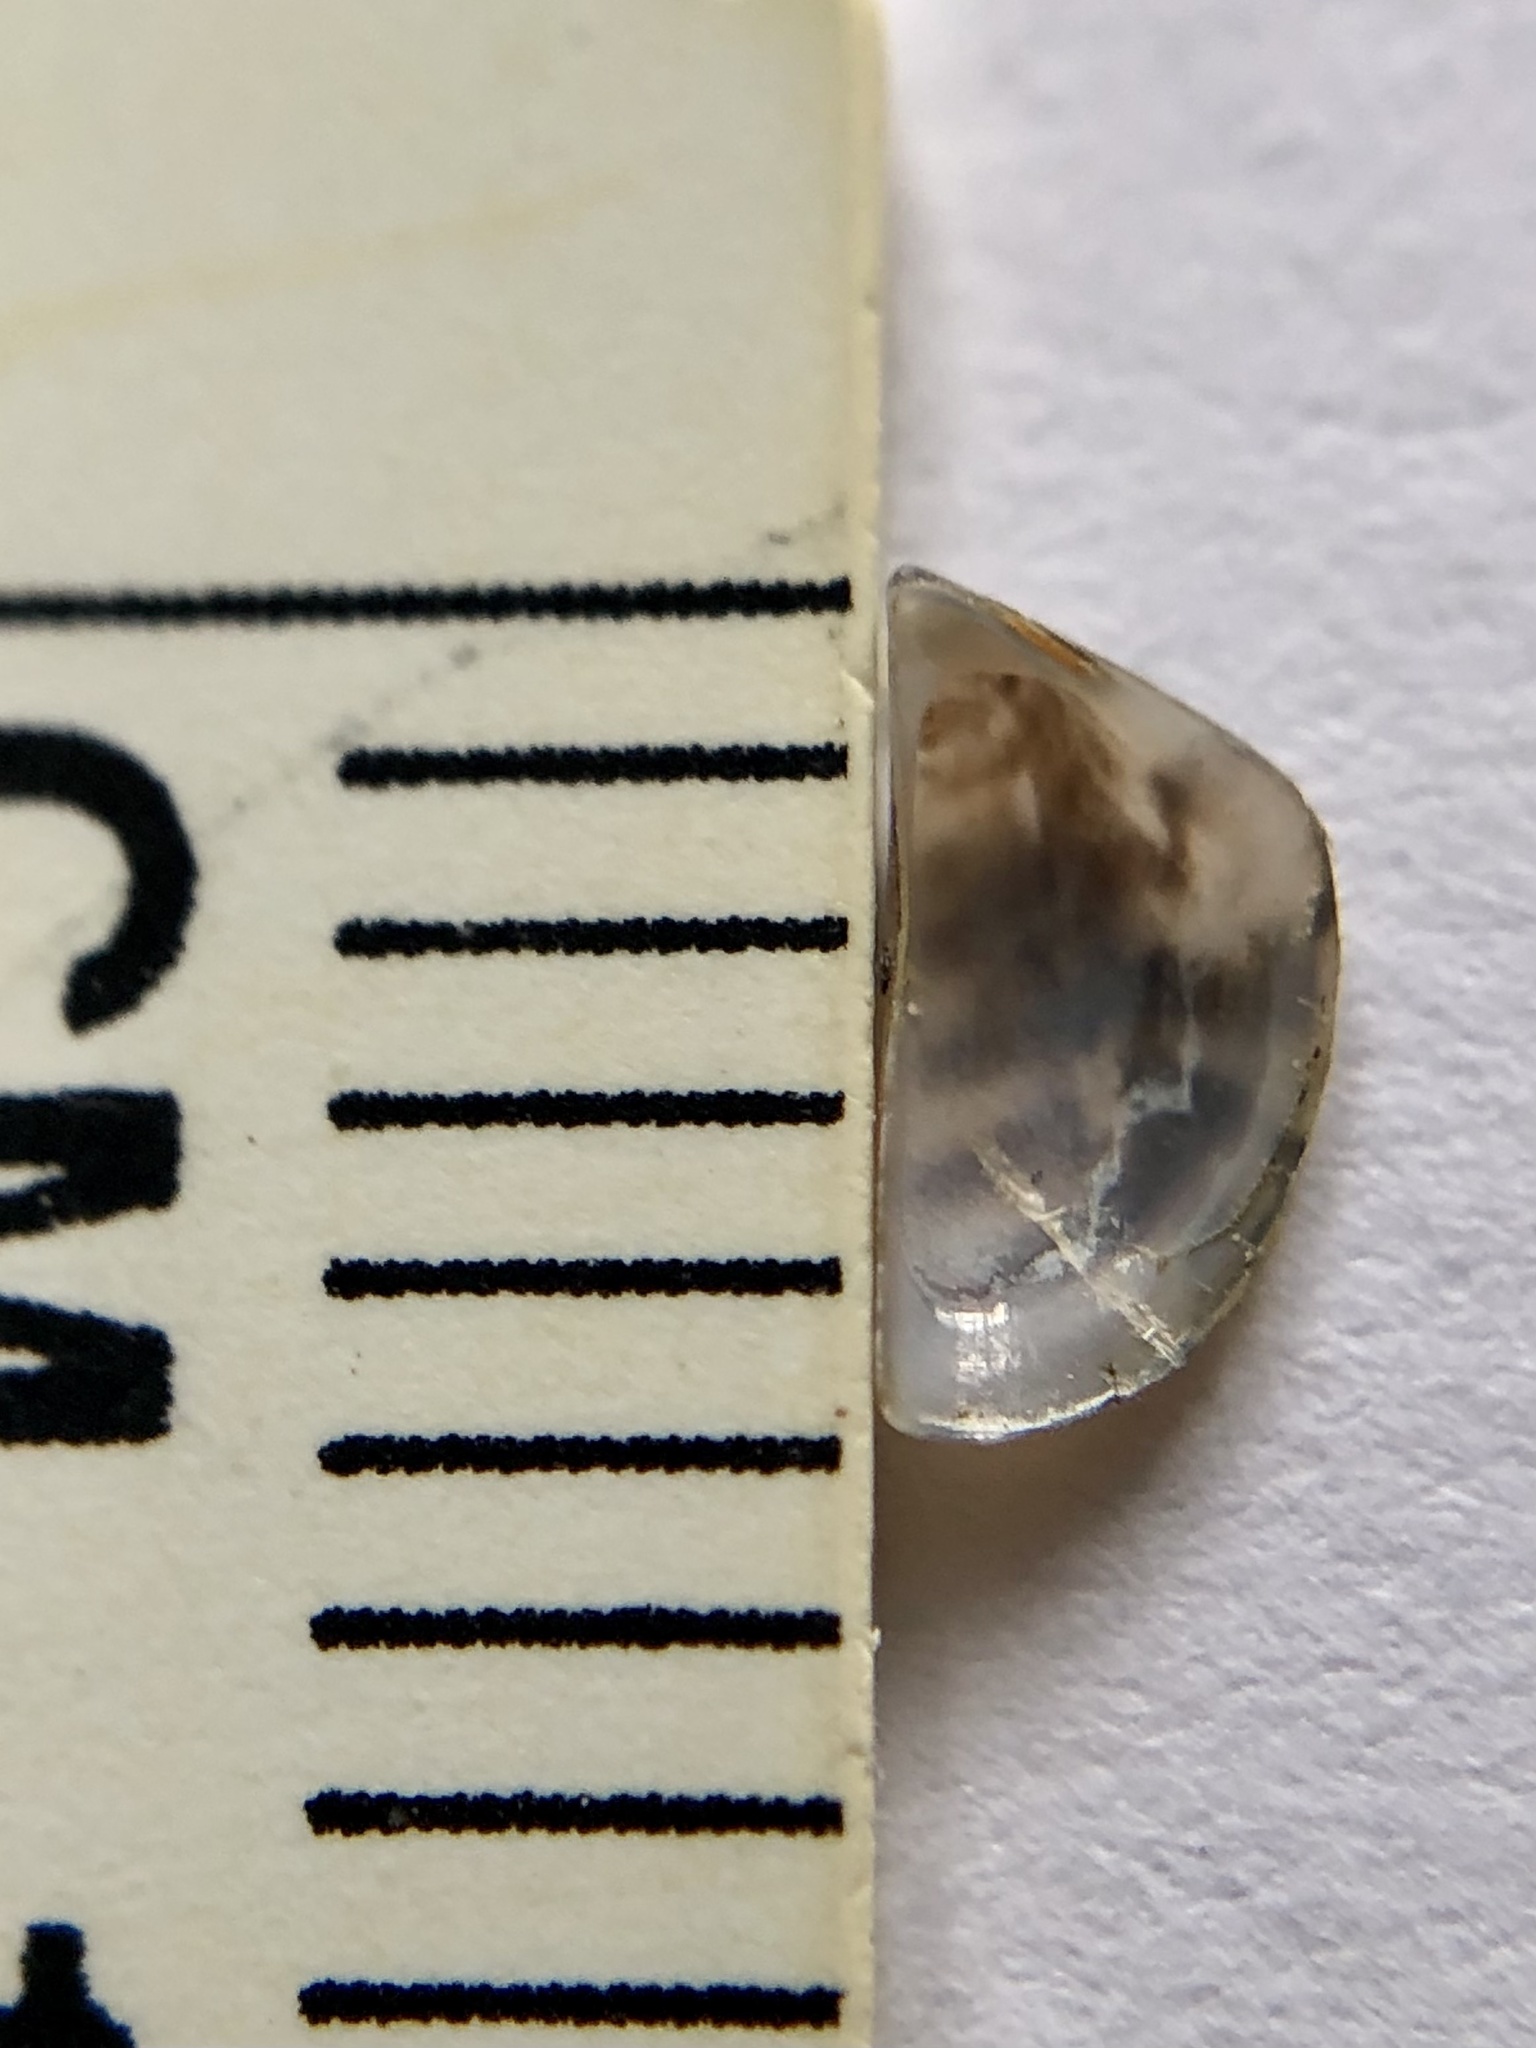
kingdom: Animalia
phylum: Mollusca
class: Bivalvia
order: Myida
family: Dreissenidae
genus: Dreissena
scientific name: Dreissena polymorpha
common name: Zebra mussel
